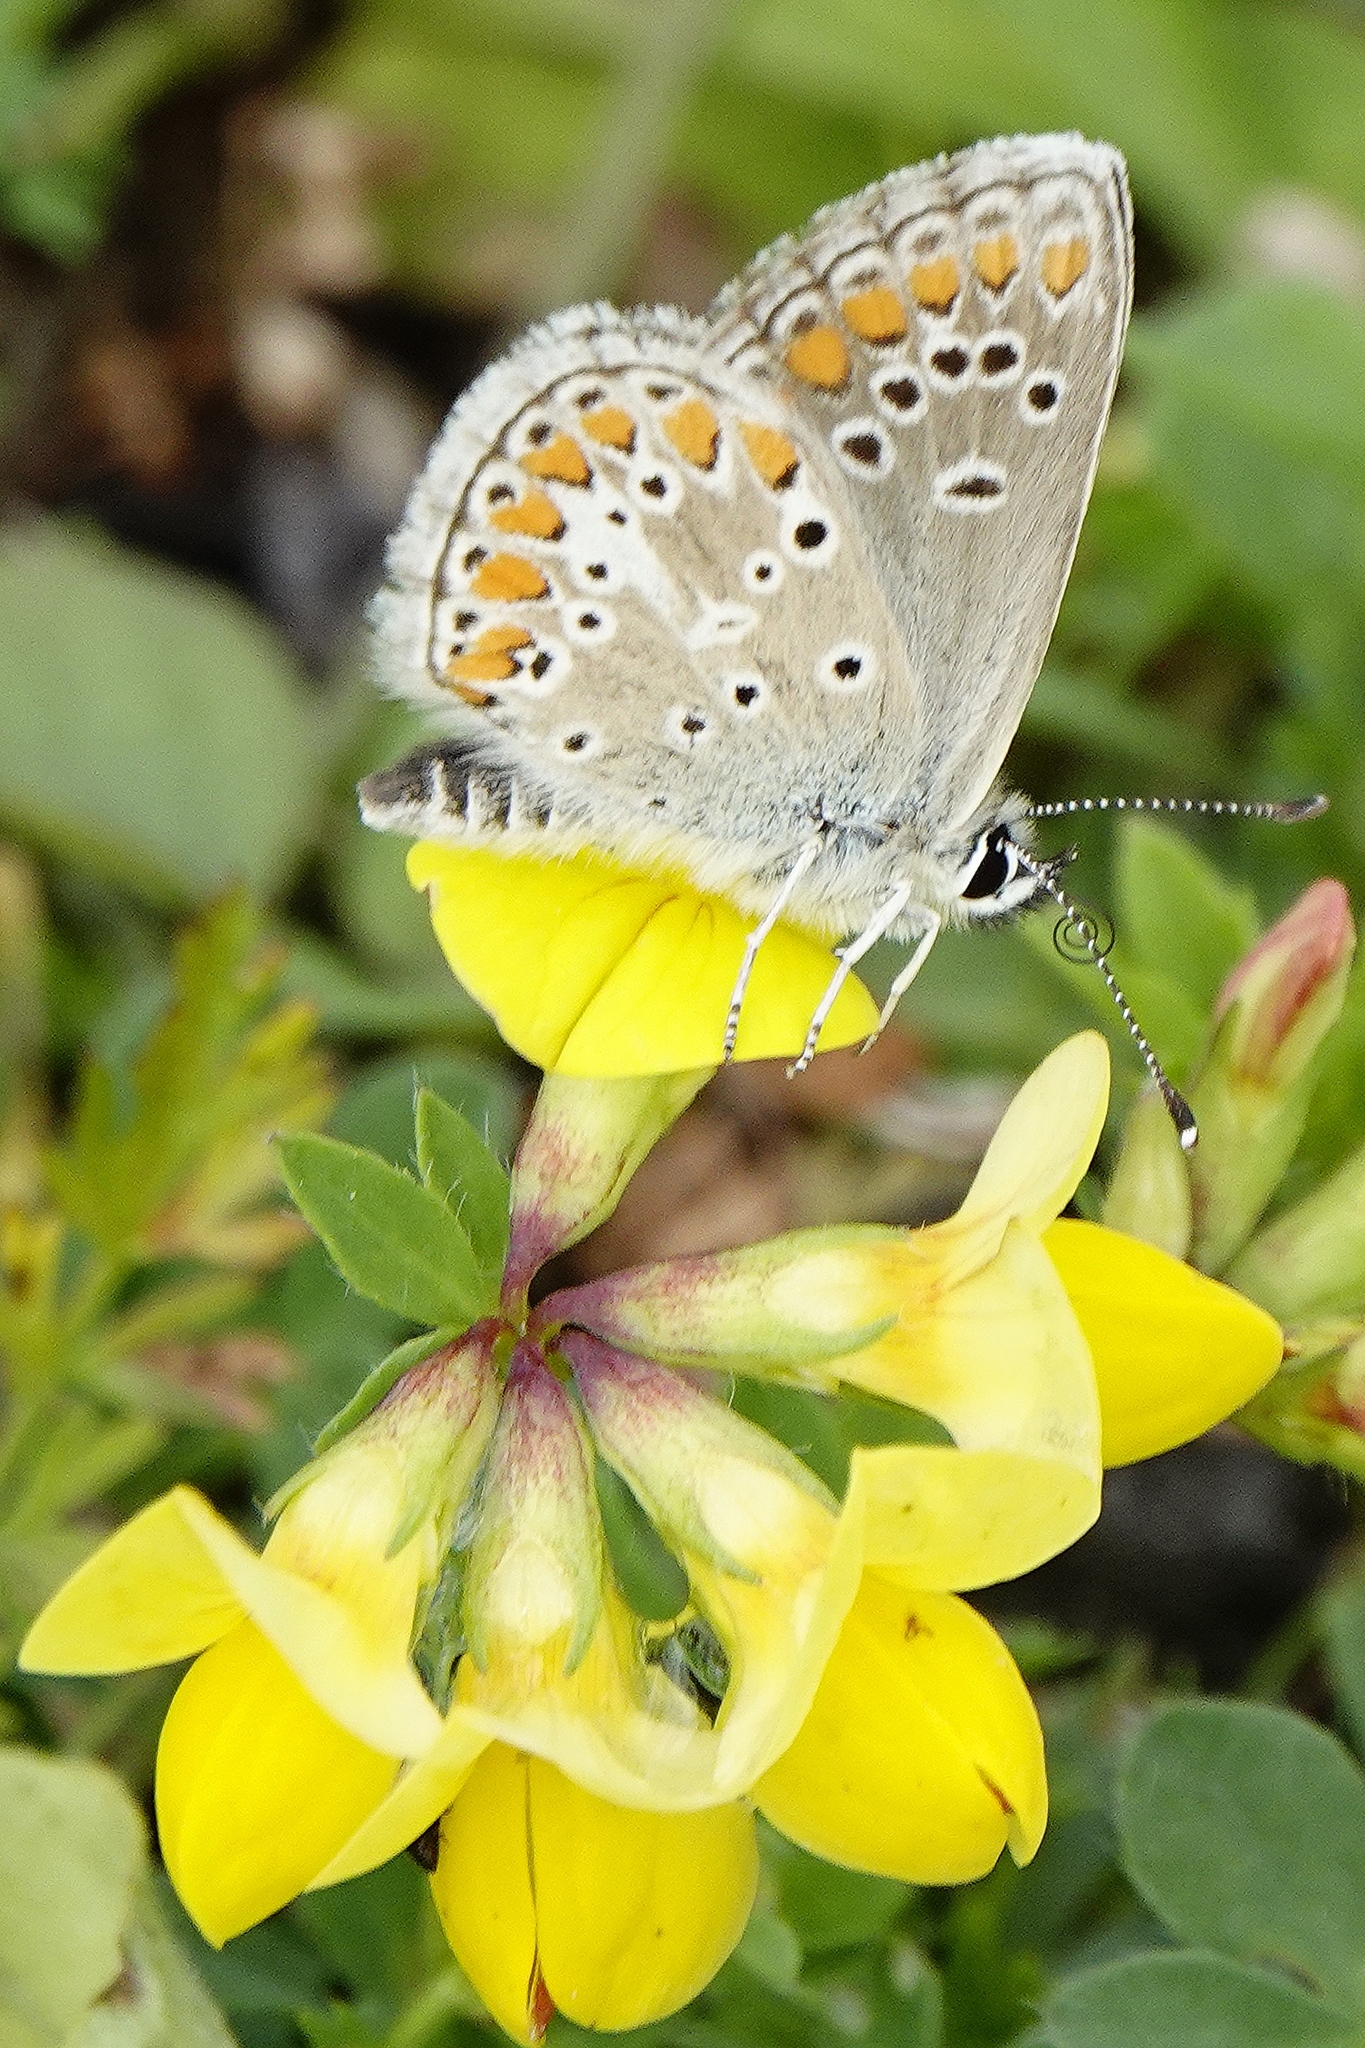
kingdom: Animalia
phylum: Arthropoda
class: Insecta
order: Lepidoptera
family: Lycaenidae
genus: Aricia
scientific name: Aricia artaxerxes
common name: Northern brown argus
